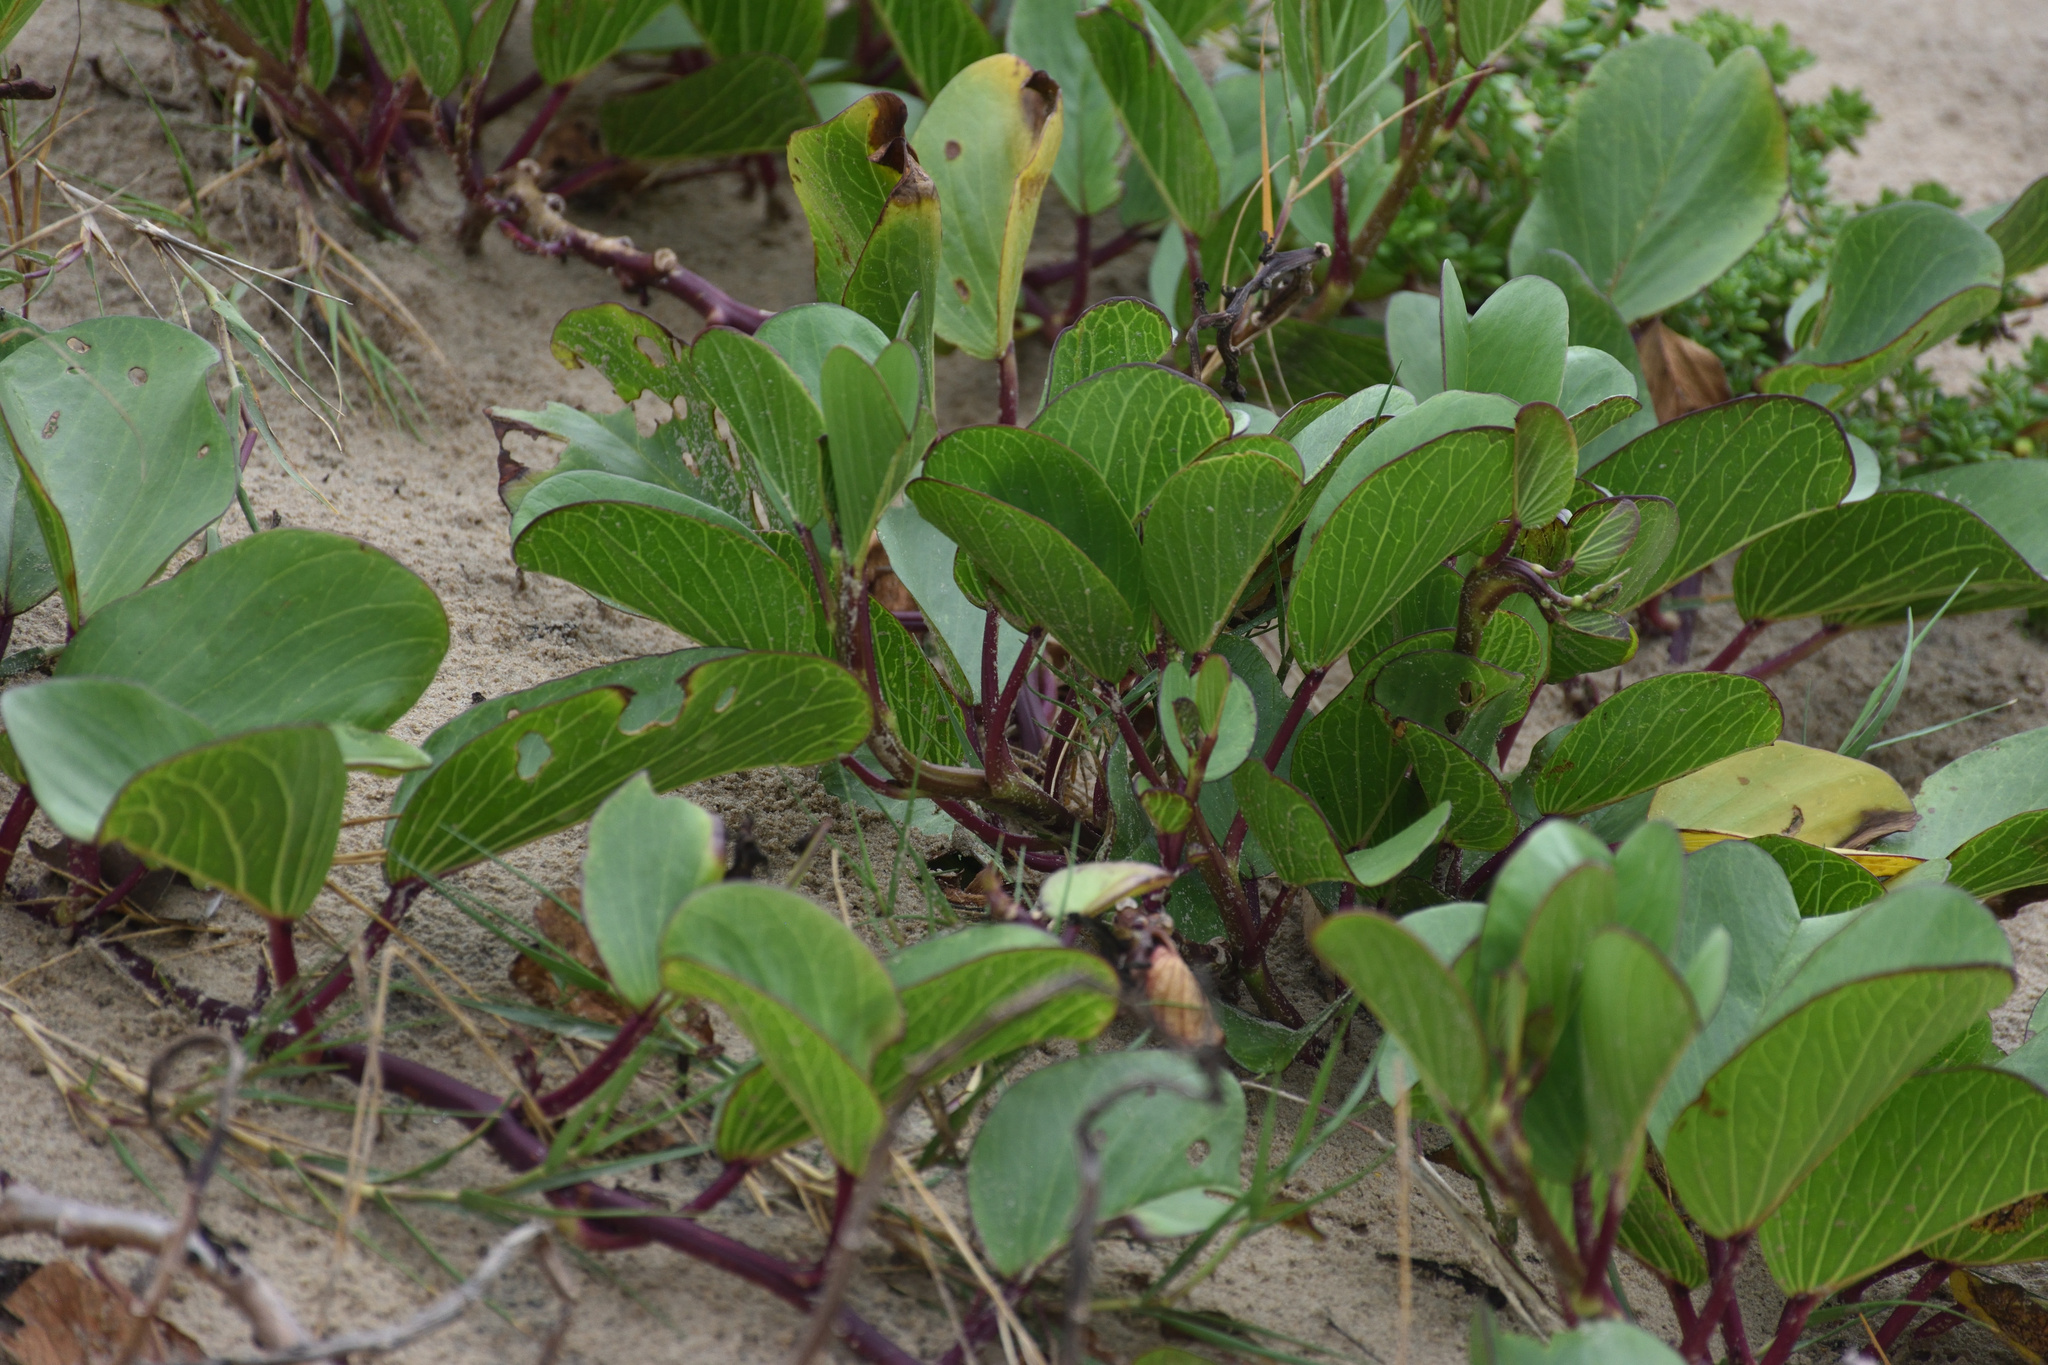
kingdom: Plantae
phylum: Tracheophyta
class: Magnoliopsida
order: Solanales
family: Convolvulaceae
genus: Ipomoea
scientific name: Ipomoea pes-caprae
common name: Beach morning glory
